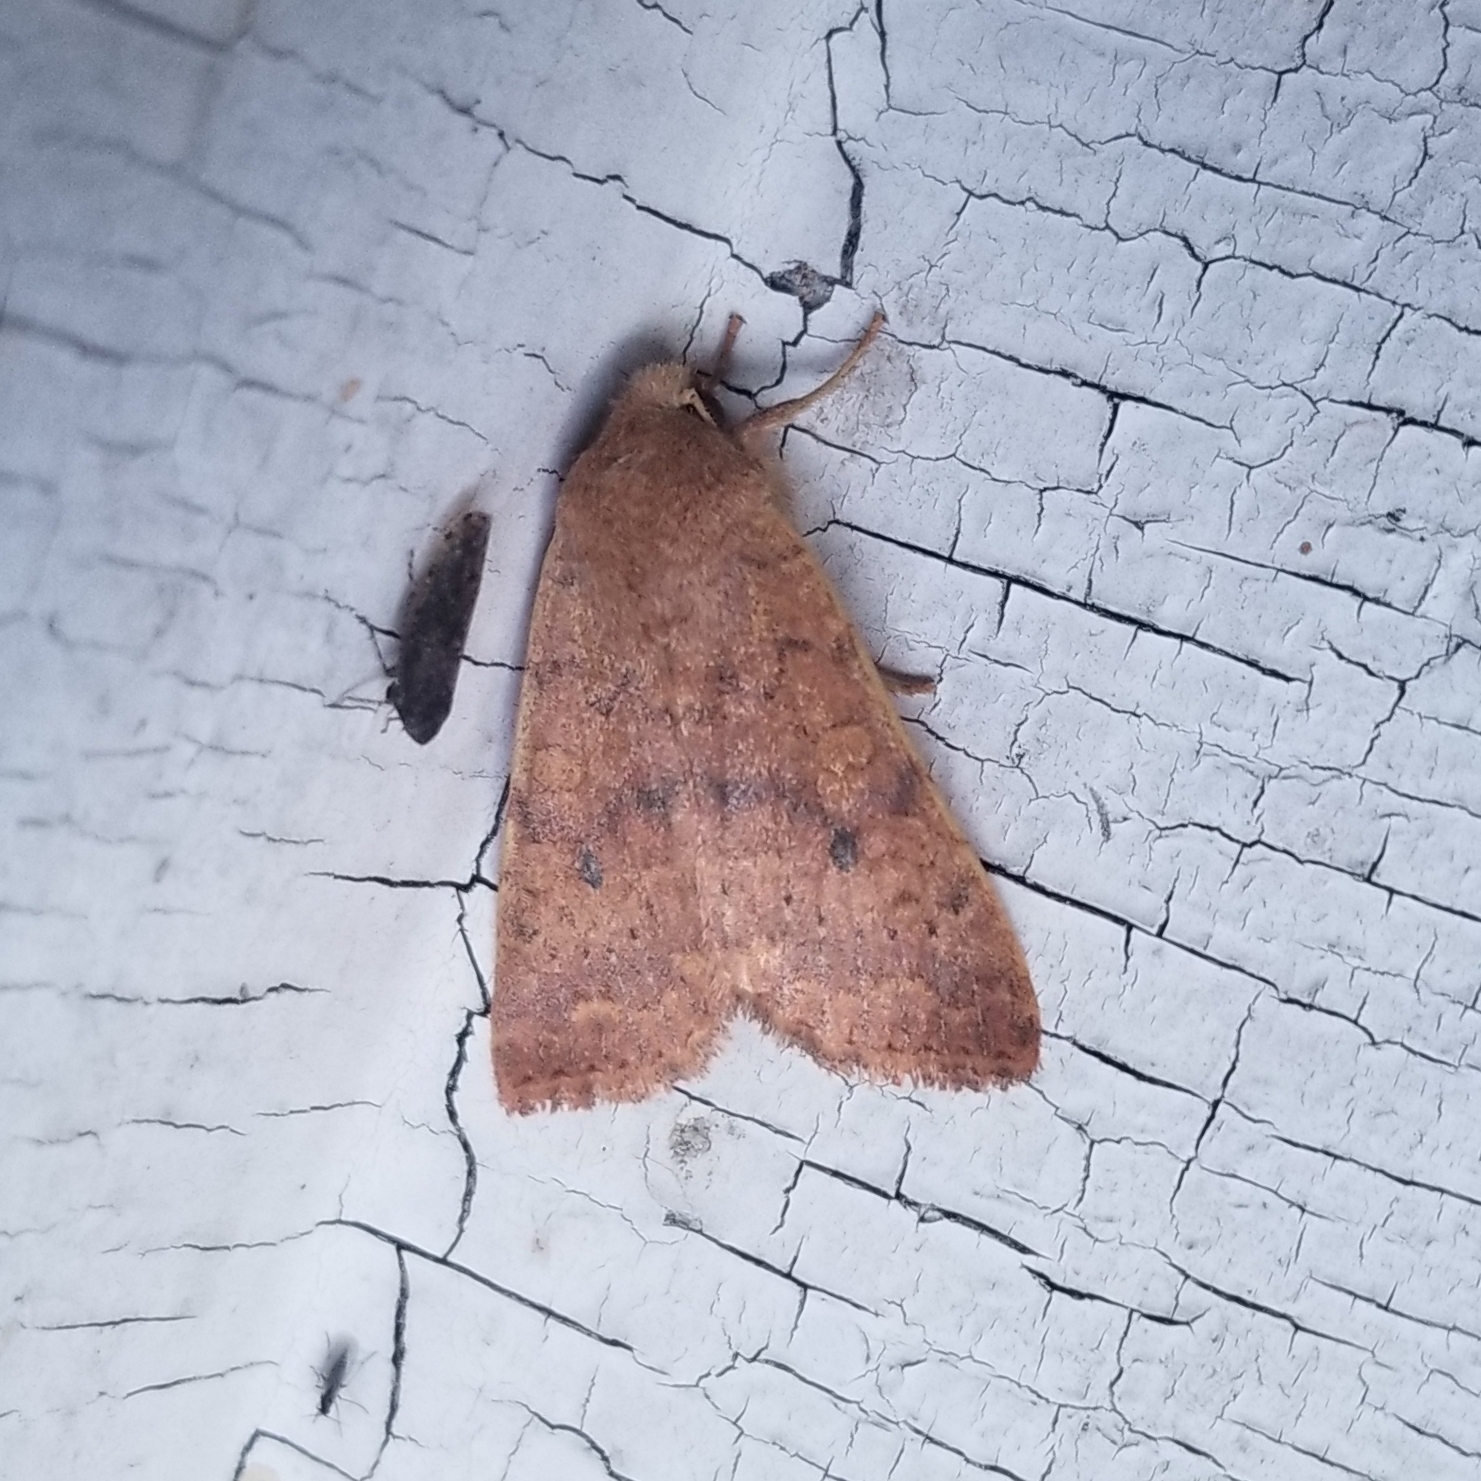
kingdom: Animalia
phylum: Arthropoda
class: Insecta
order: Lepidoptera
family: Noctuidae
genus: Agrochola
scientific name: Agrochola bicolorago
